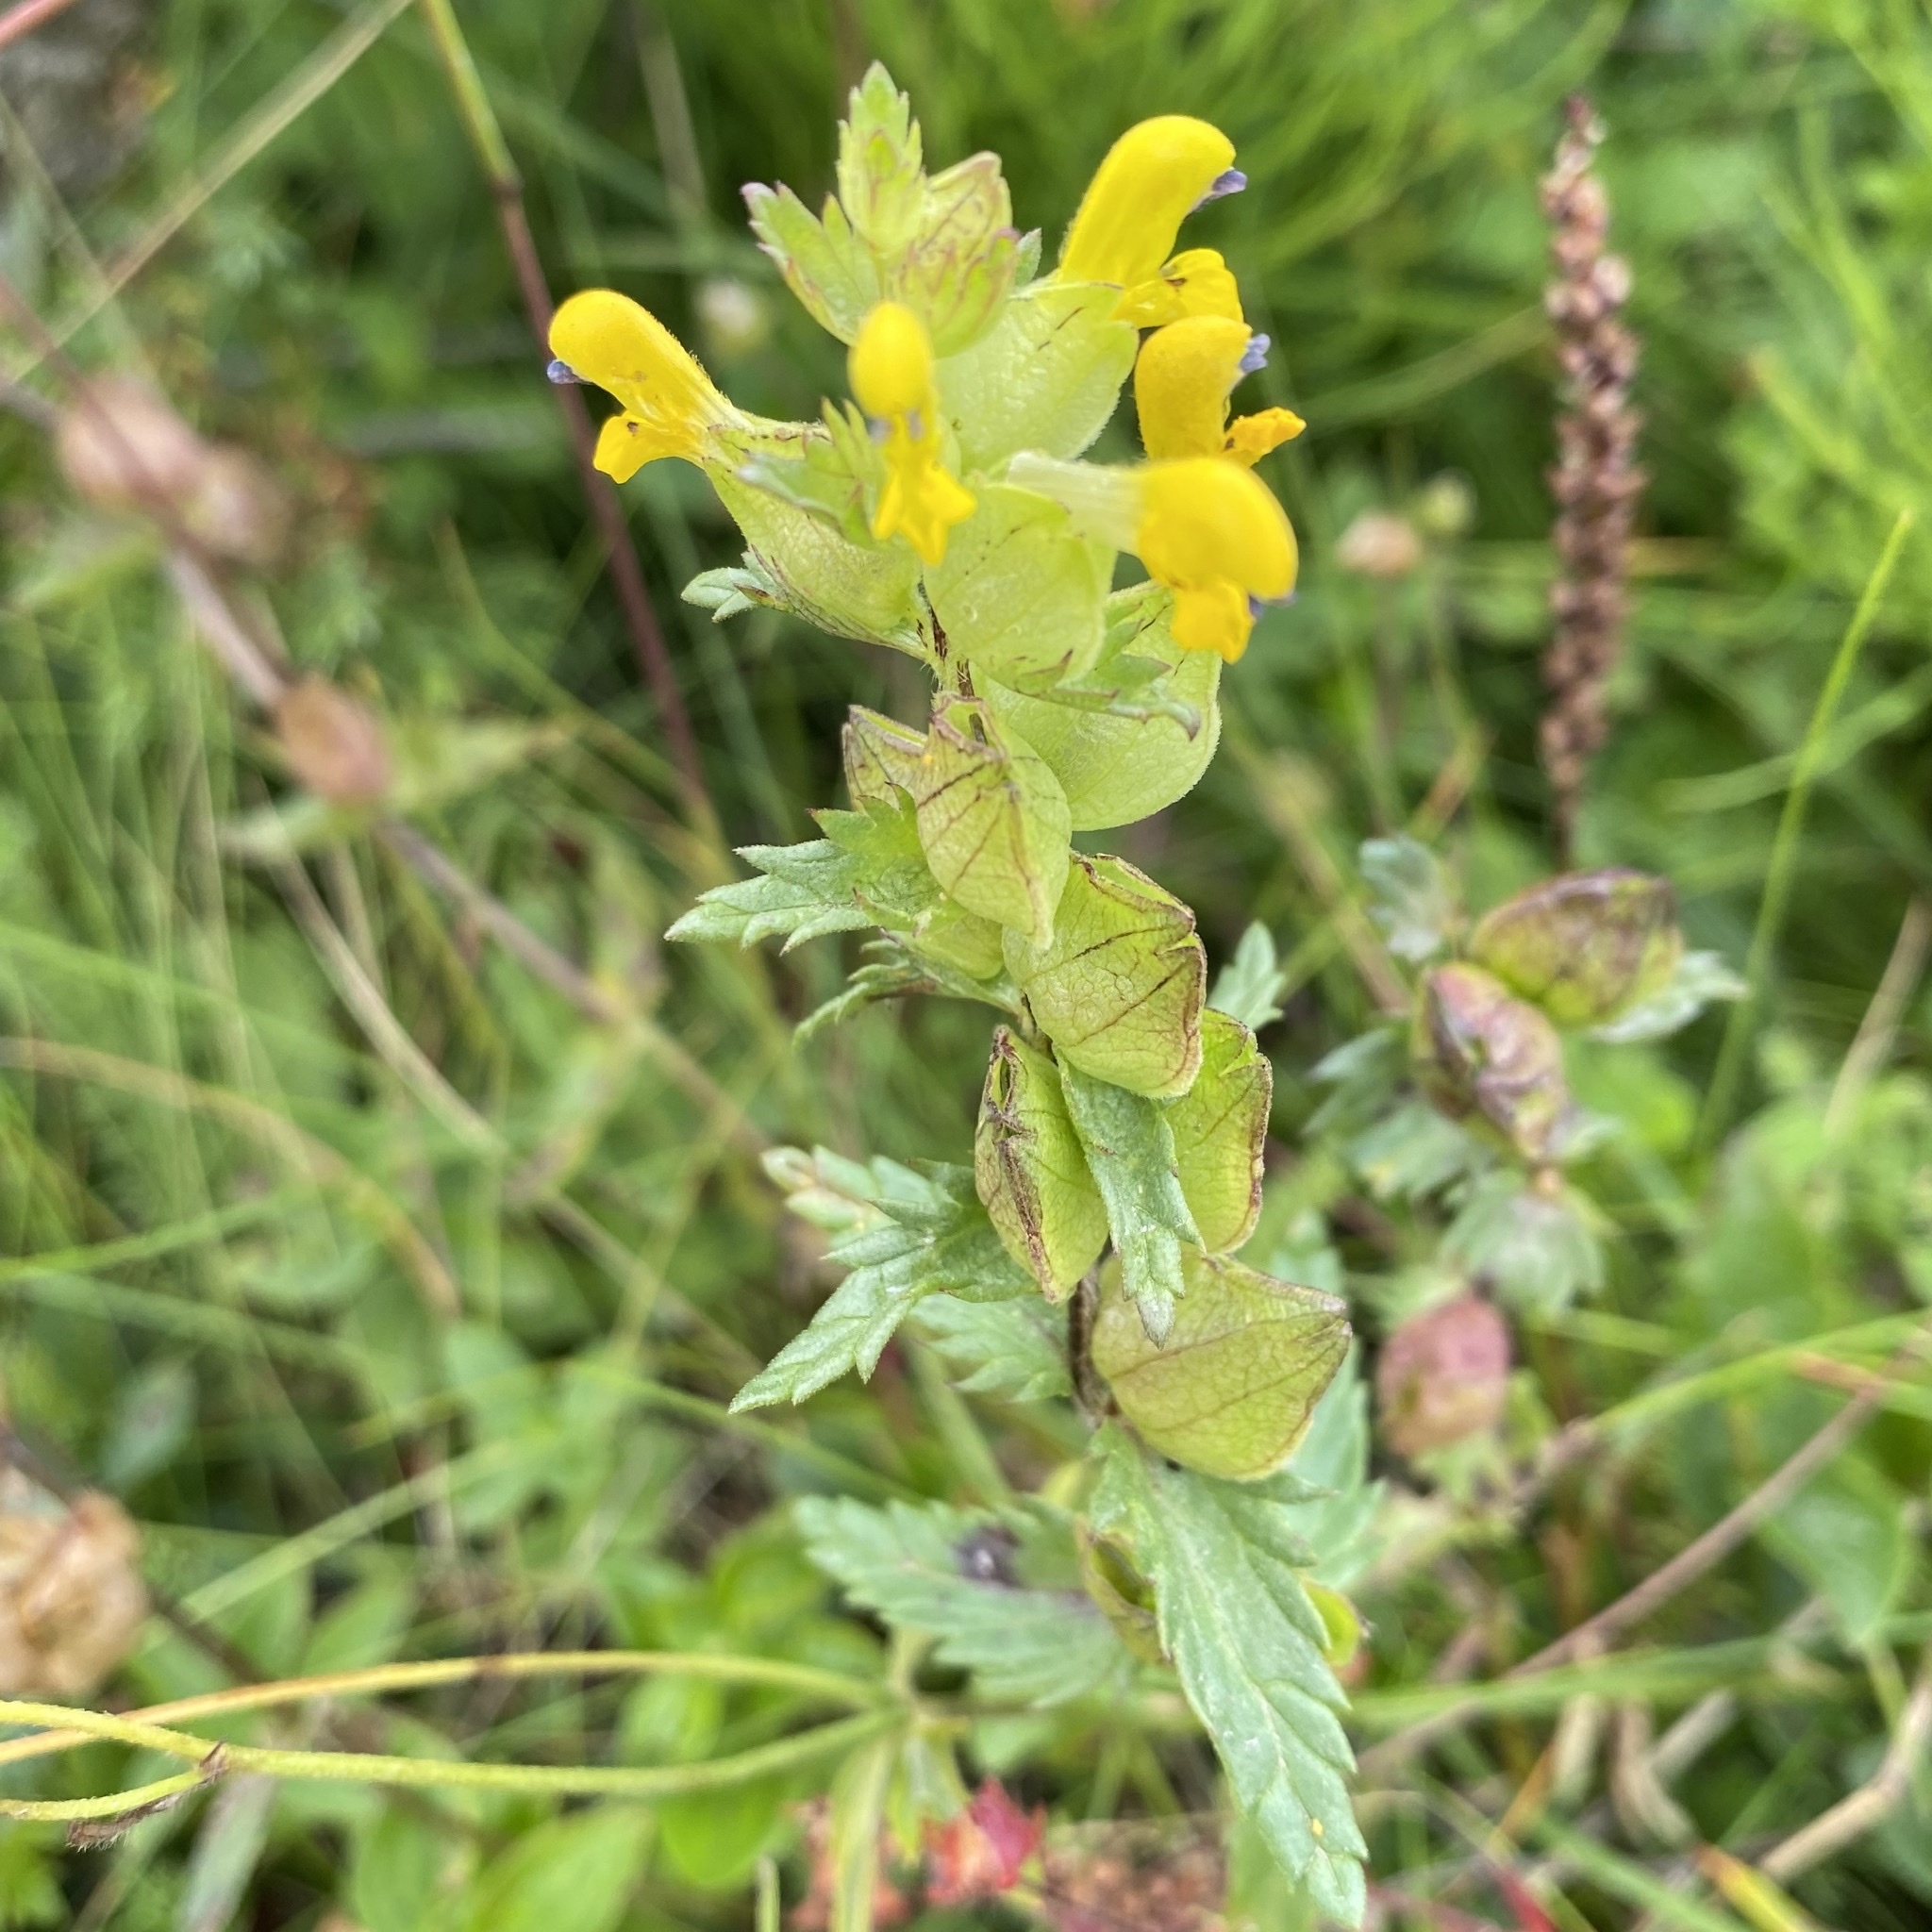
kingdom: Plantae
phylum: Tracheophyta
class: Magnoliopsida
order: Lamiales
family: Orobanchaceae
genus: Rhinanthus
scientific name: Rhinanthus minor
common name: Yellow-rattle
